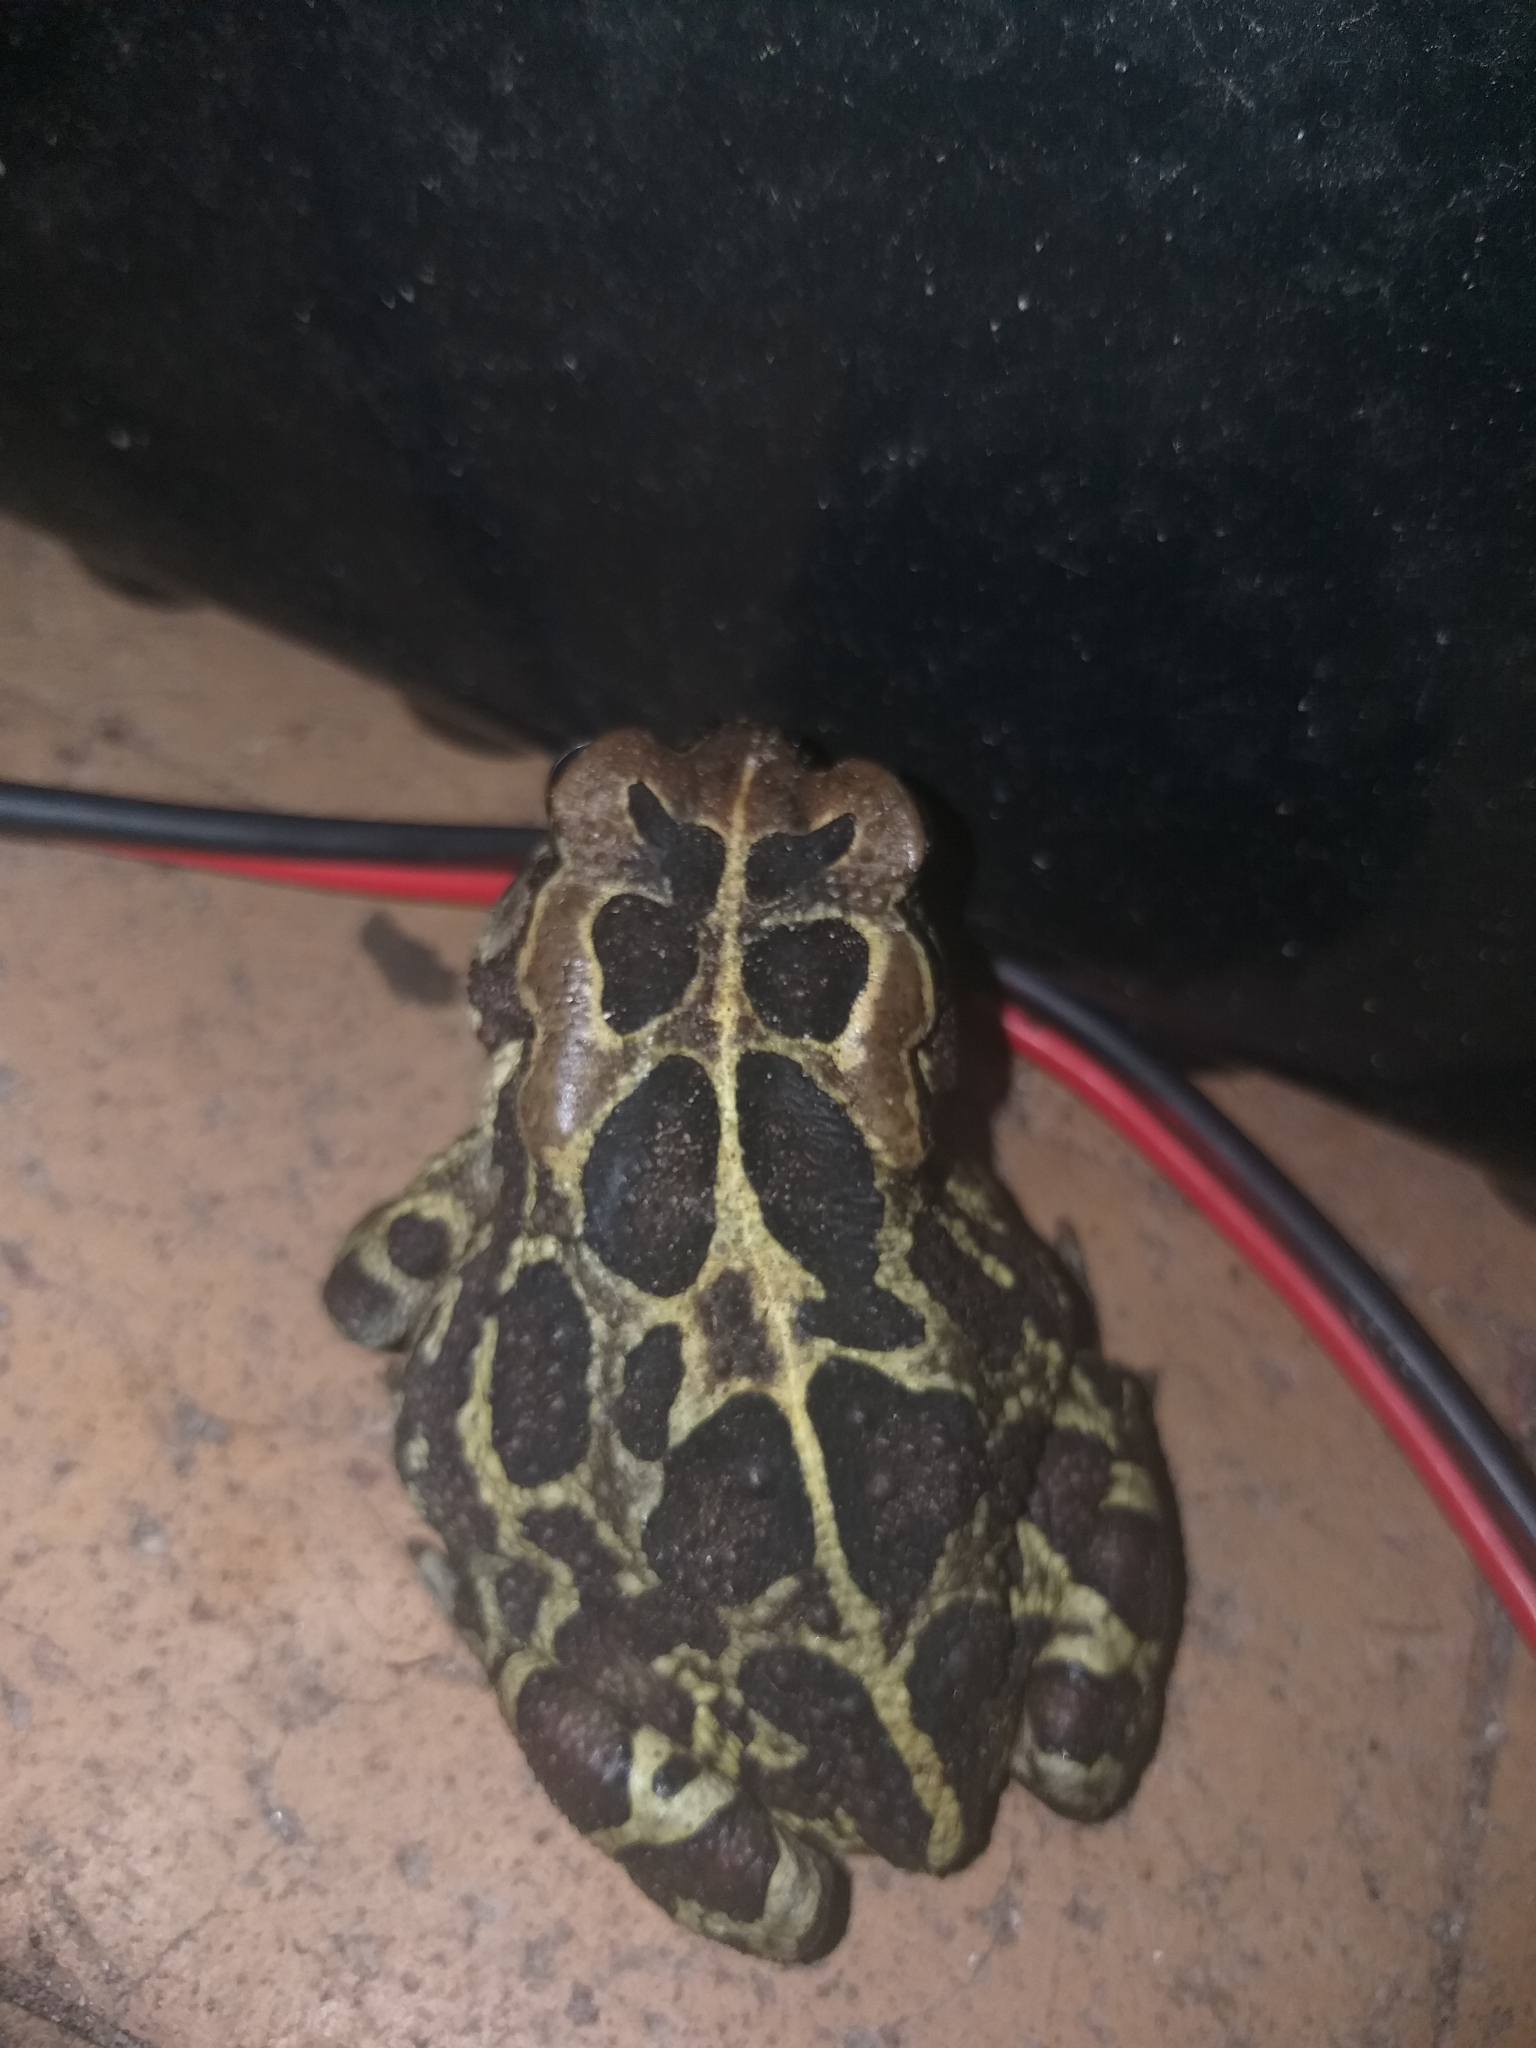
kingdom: Animalia
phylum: Chordata
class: Amphibia
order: Anura
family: Bufonidae
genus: Sclerophrys
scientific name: Sclerophrys pantherina
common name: Panther toad
